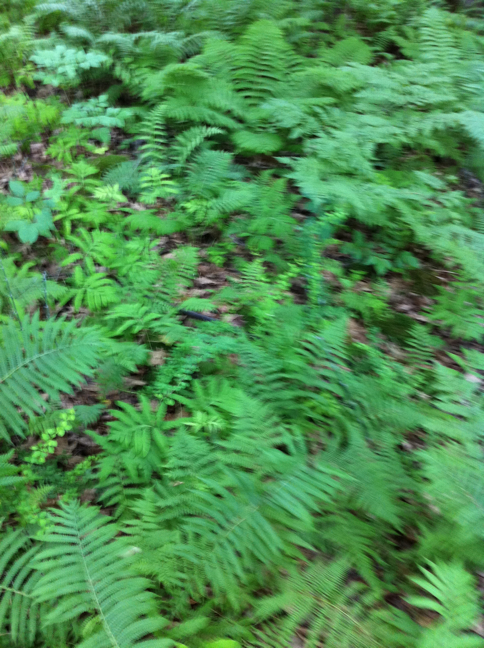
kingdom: Plantae
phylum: Tracheophyta
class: Polypodiopsida
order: Polypodiales
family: Onocleaceae
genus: Onoclea
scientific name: Onoclea sensibilis
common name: Sensitive fern
